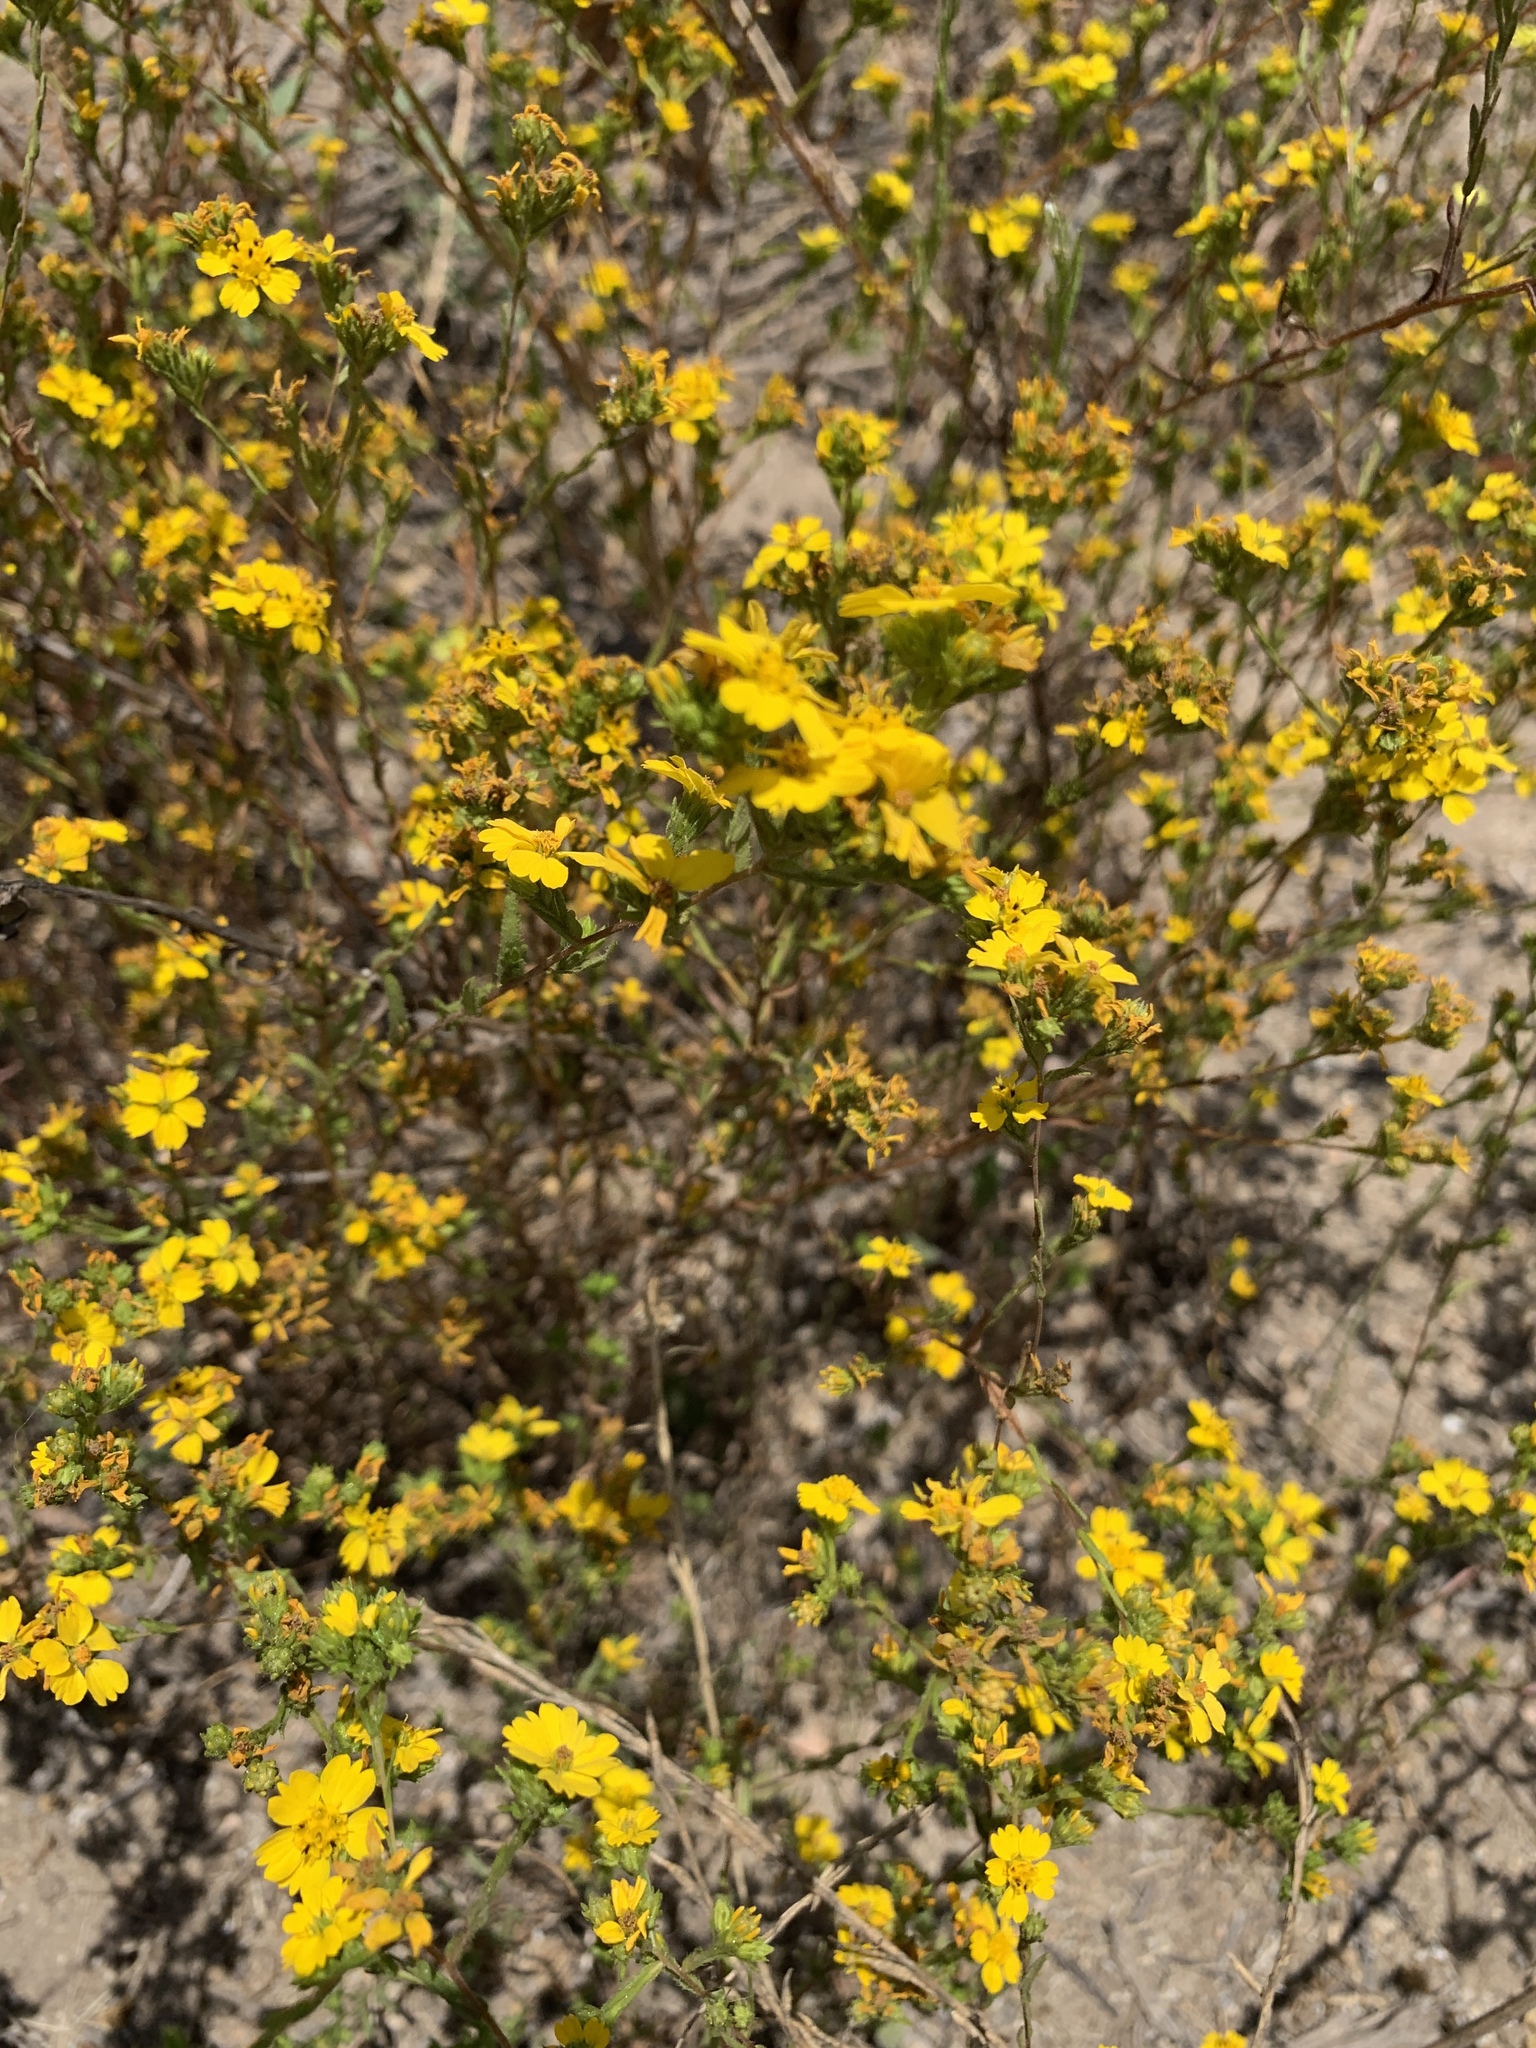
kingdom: Plantae
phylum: Tracheophyta
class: Magnoliopsida
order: Asterales
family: Asteraceae
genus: Deinandra
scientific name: Deinandra fasciculata
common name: Clustered tarweed
